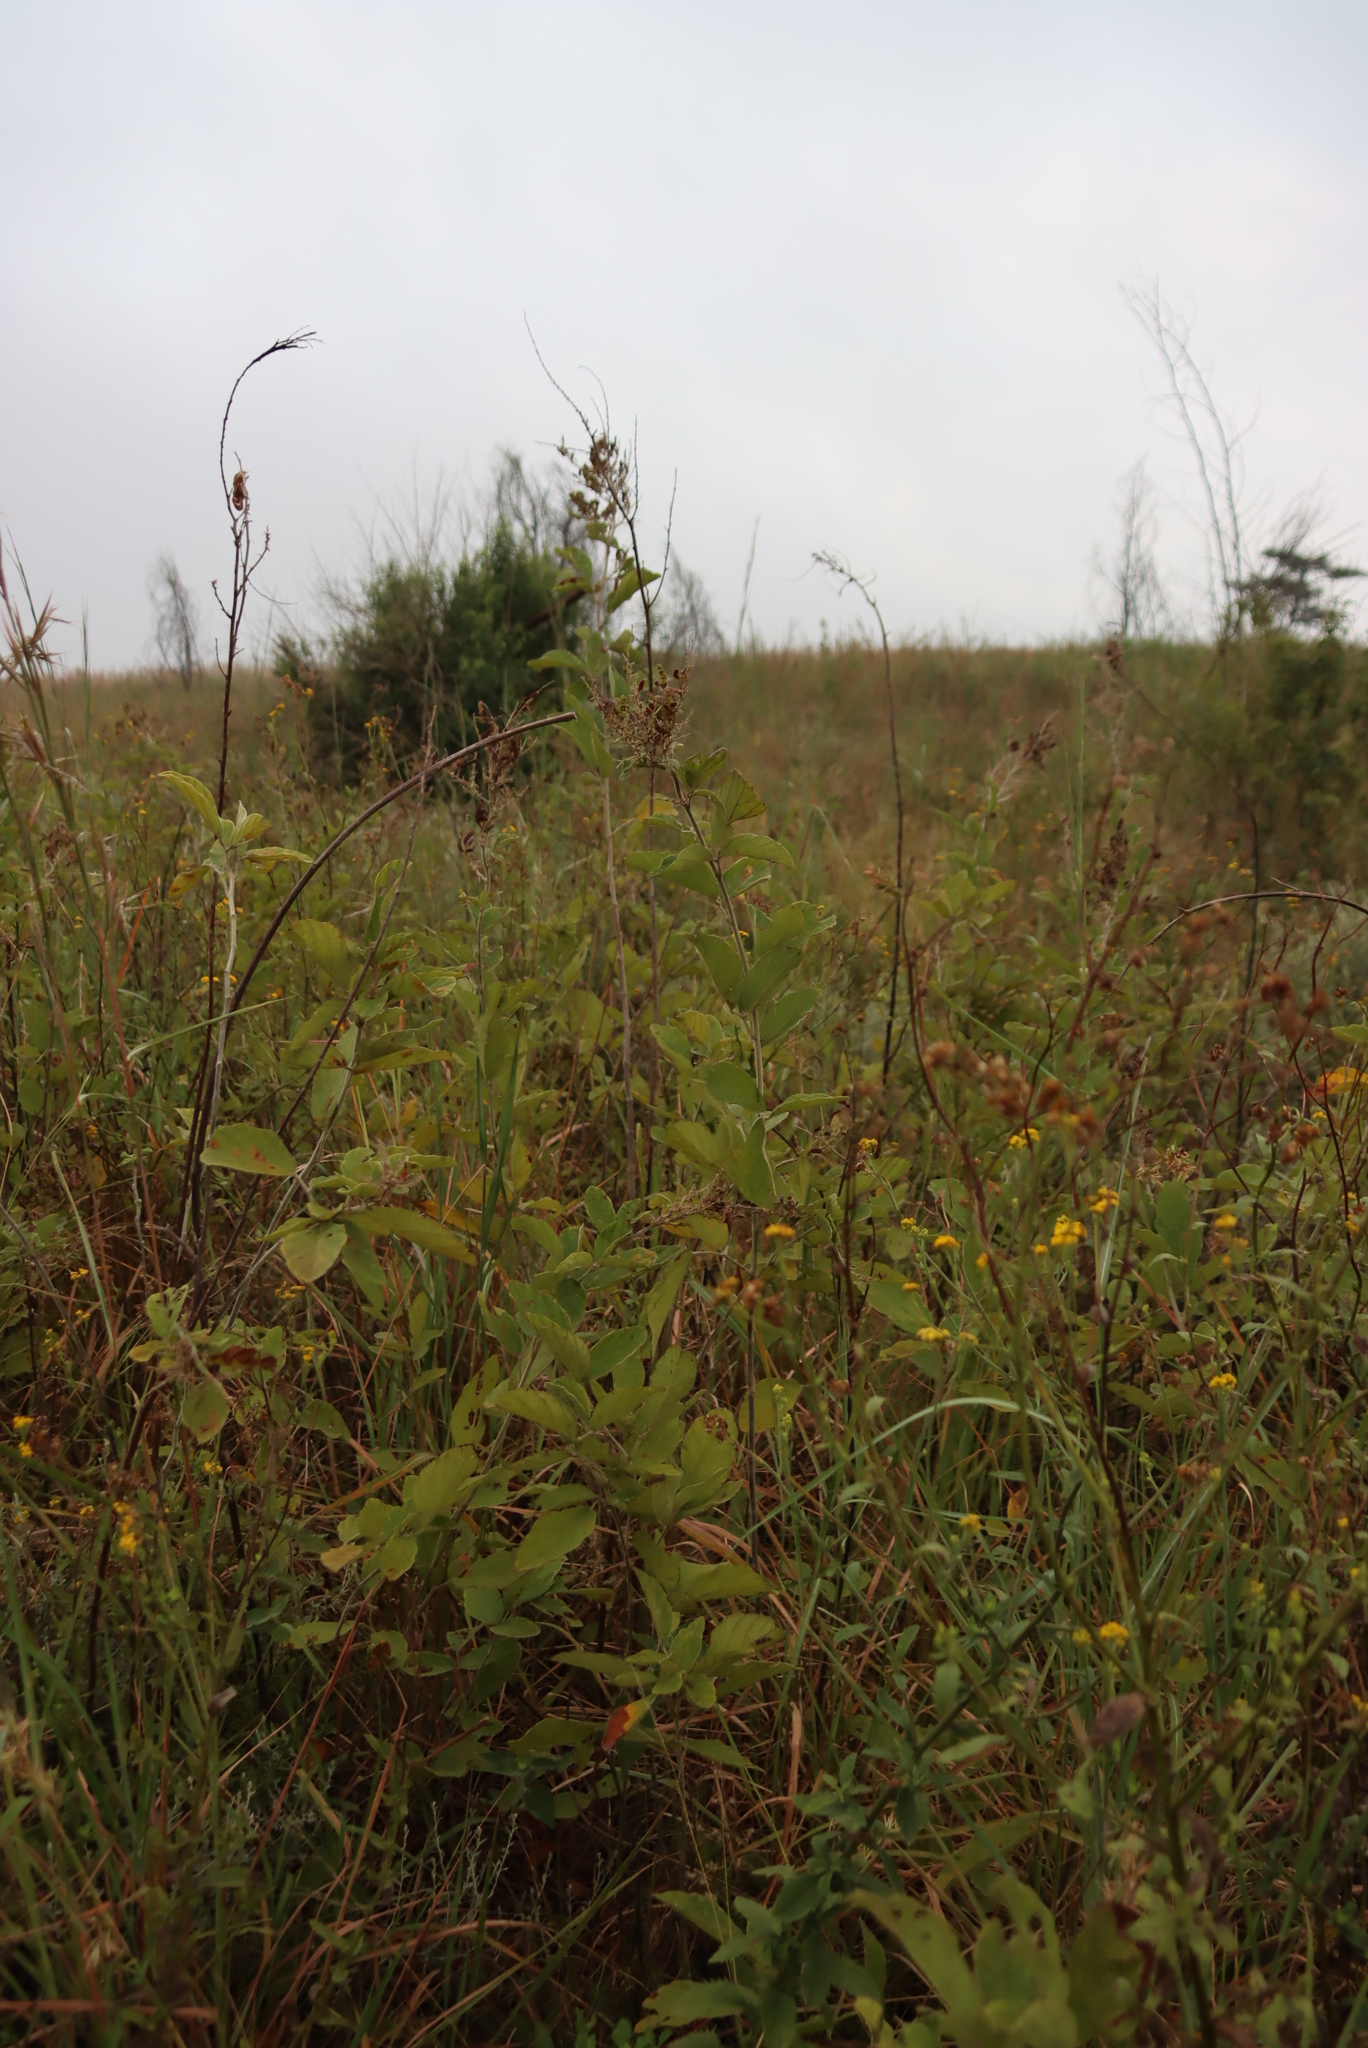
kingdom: Plantae
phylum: Tracheophyta
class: Magnoliopsida
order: Fabales
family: Fabaceae
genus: Pseudarthria
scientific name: Pseudarthria hookeri
